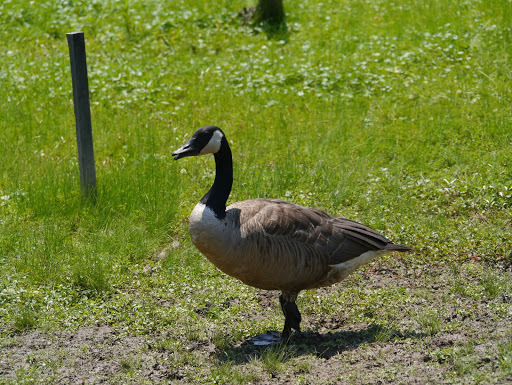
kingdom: Animalia
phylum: Chordata
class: Aves
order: Anseriformes
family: Anatidae
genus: Branta
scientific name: Branta canadensis
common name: Canada goose
